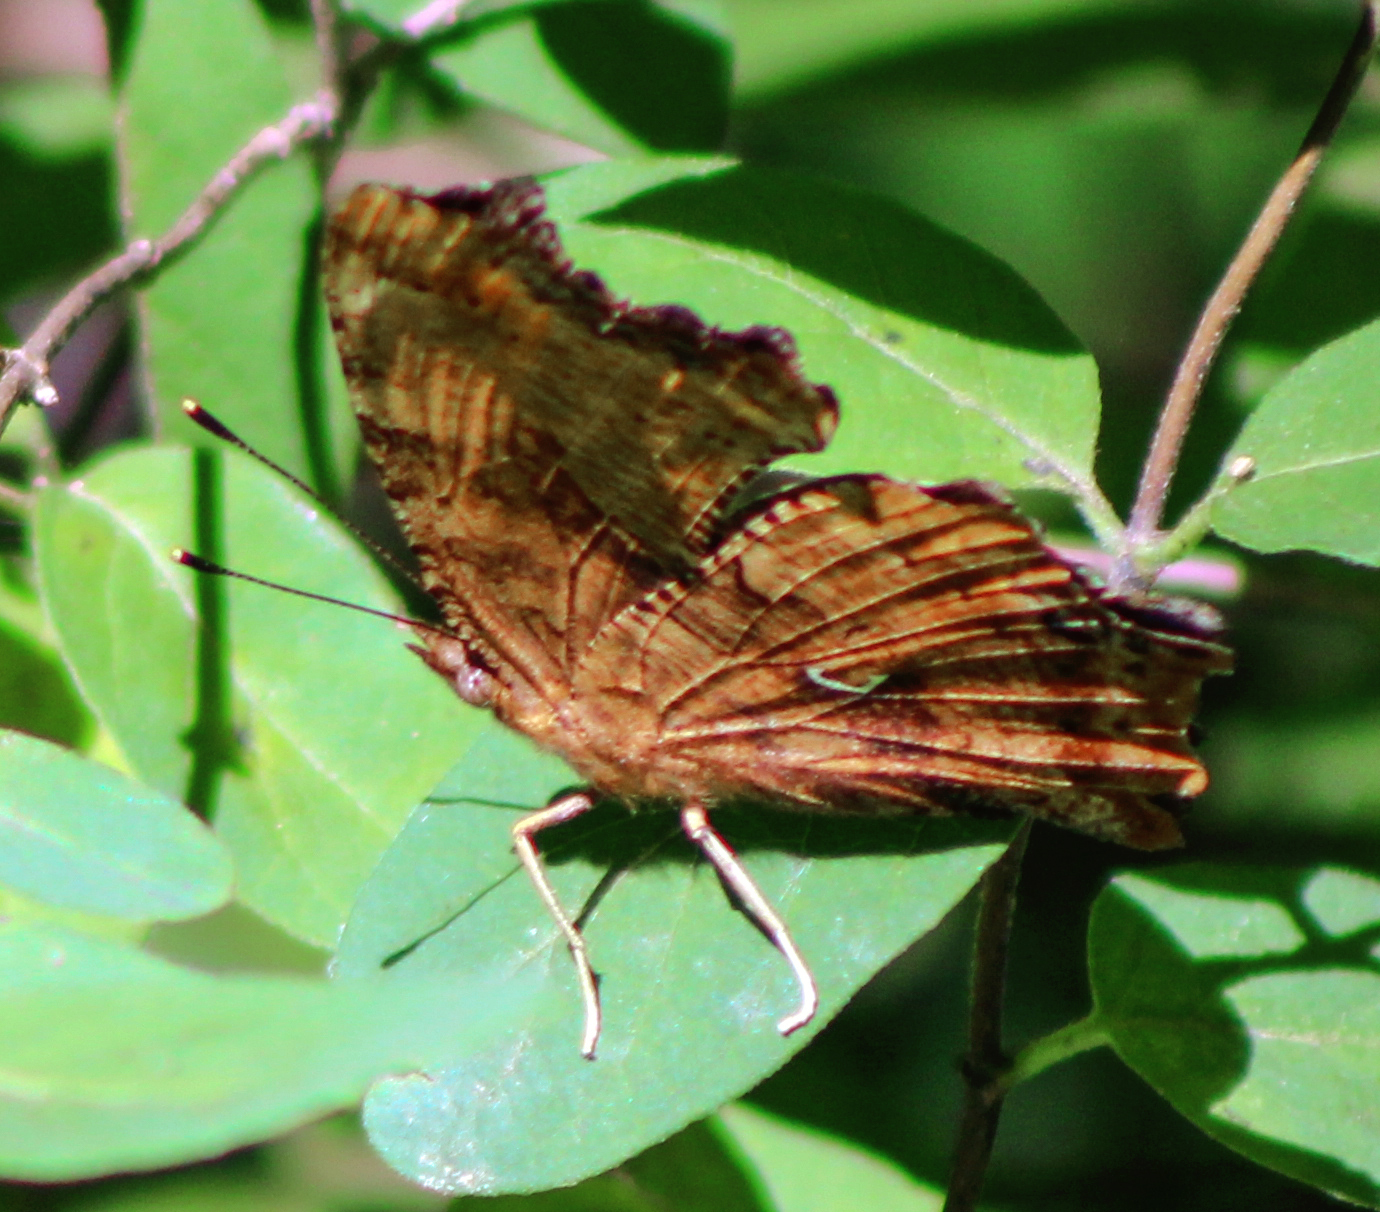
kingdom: Animalia
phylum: Arthropoda
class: Insecta
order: Lepidoptera
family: Nymphalidae
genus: Polygonia
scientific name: Polygonia comma
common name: Eastern comma
